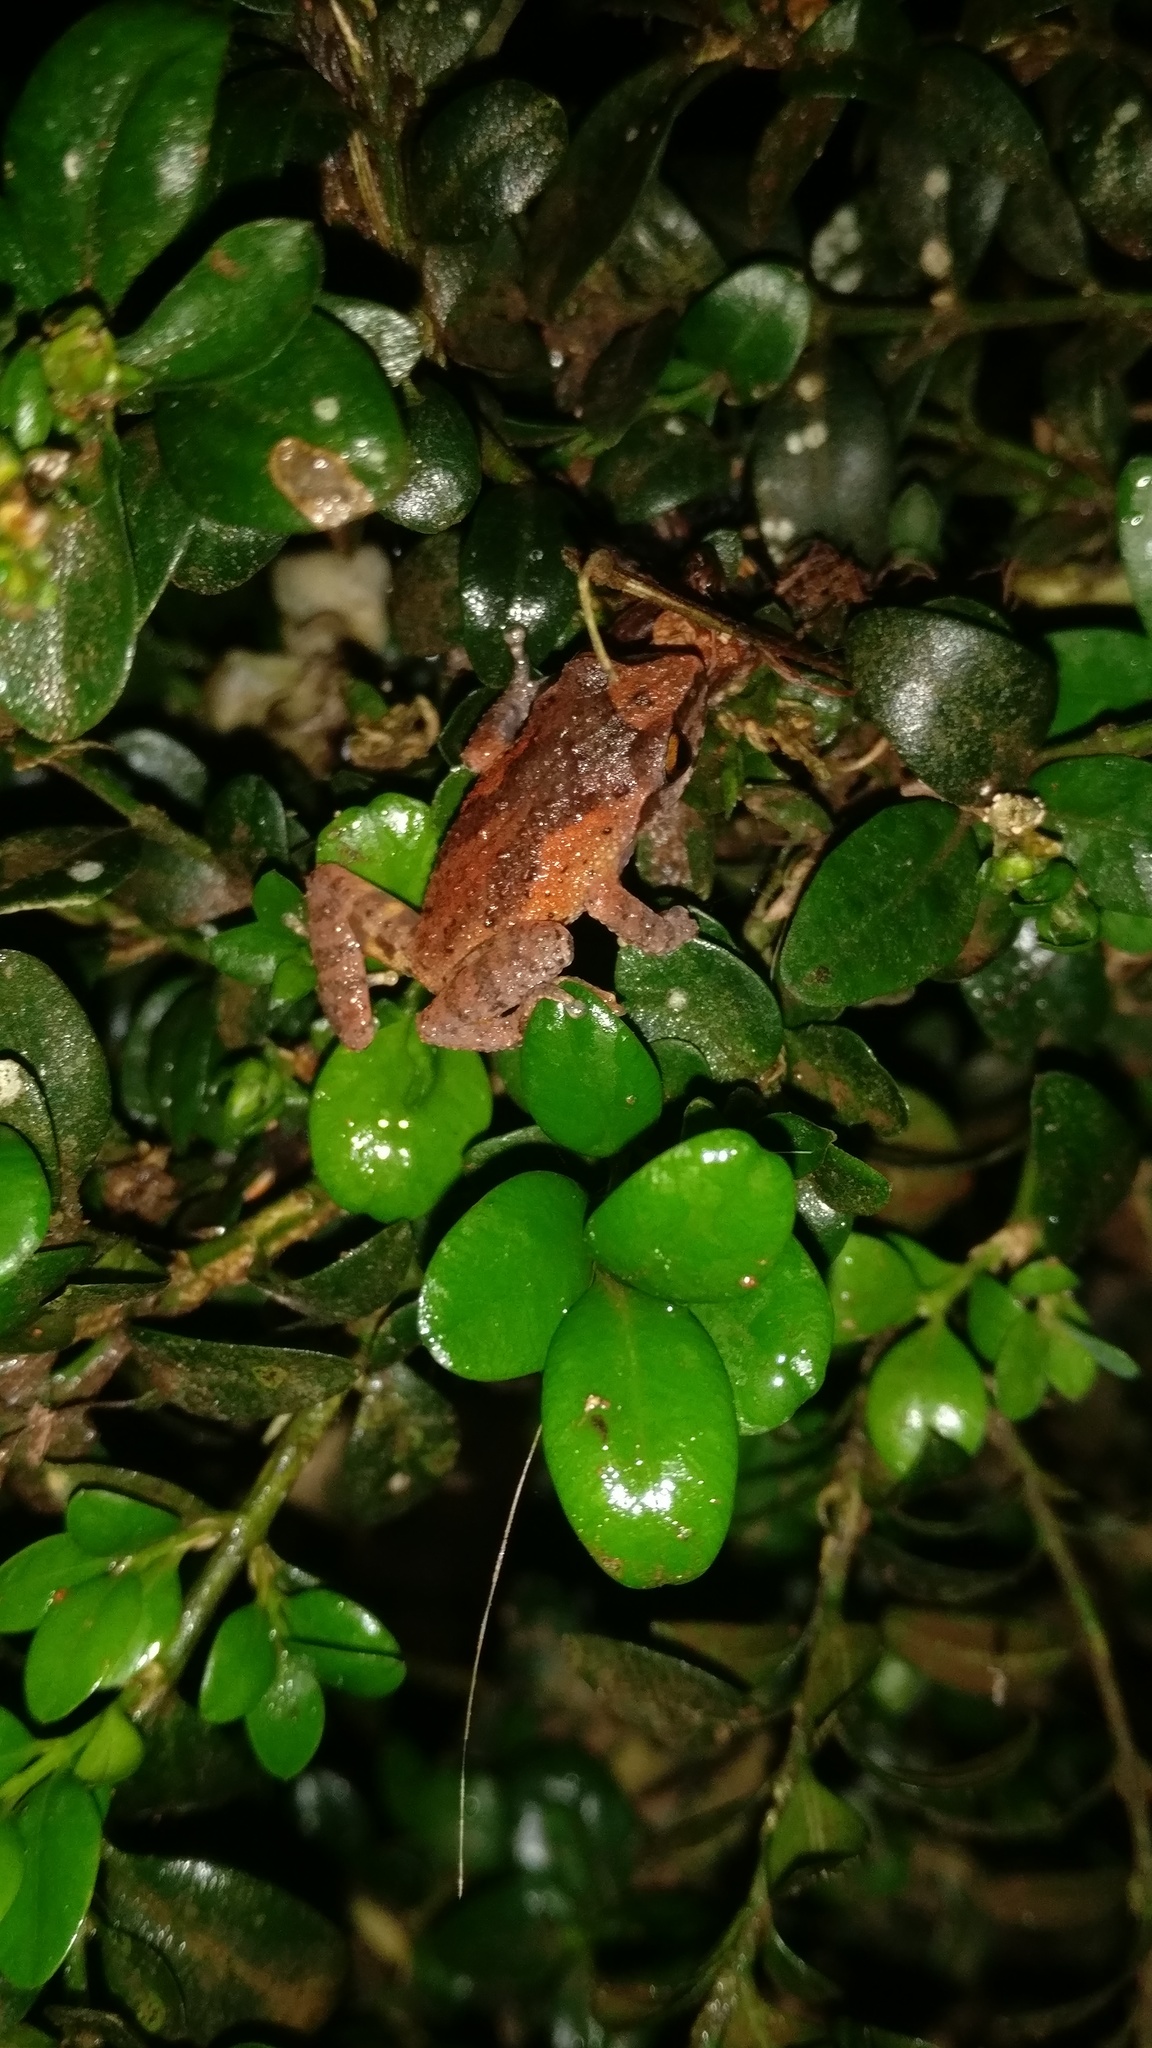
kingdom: Animalia
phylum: Chordata
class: Amphibia
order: Anura
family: Rhacophoridae
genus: Raorchestes
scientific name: Raorchestes dubois
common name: Koadaikanal bush frog
